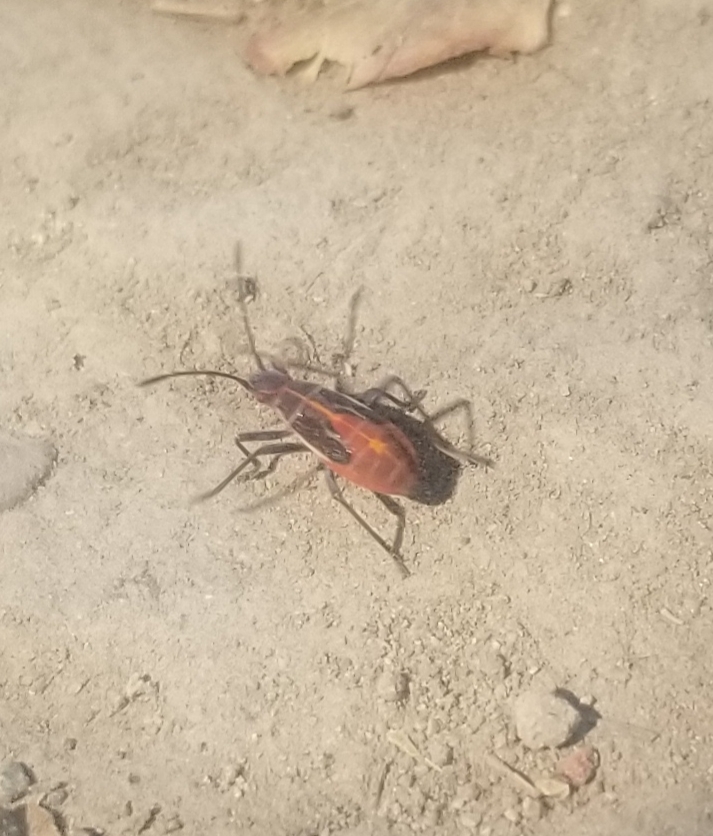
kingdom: Animalia
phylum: Arthropoda
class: Insecta
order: Hemiptera
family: Rhopalidae
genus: Boisea
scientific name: Boisea rubrolineata
